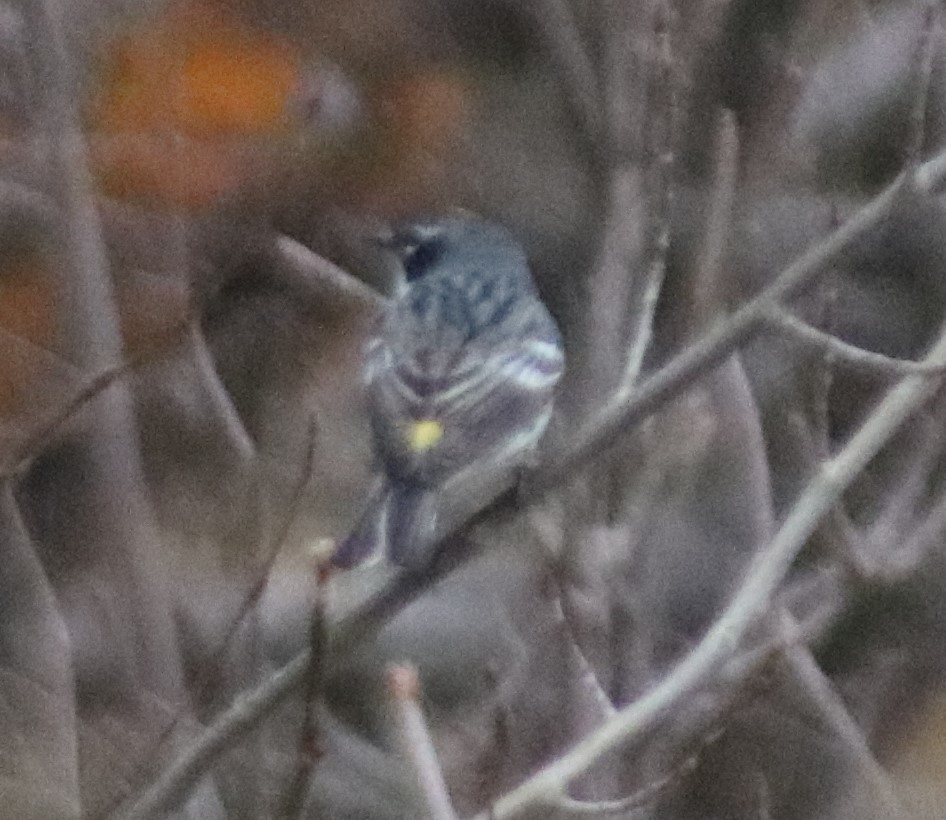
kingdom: Animalia
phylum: Chordata
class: Aves
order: Passeriformes
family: Parulidae
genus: Setophaga
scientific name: Setophaga coronata
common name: Myrtle warbler
